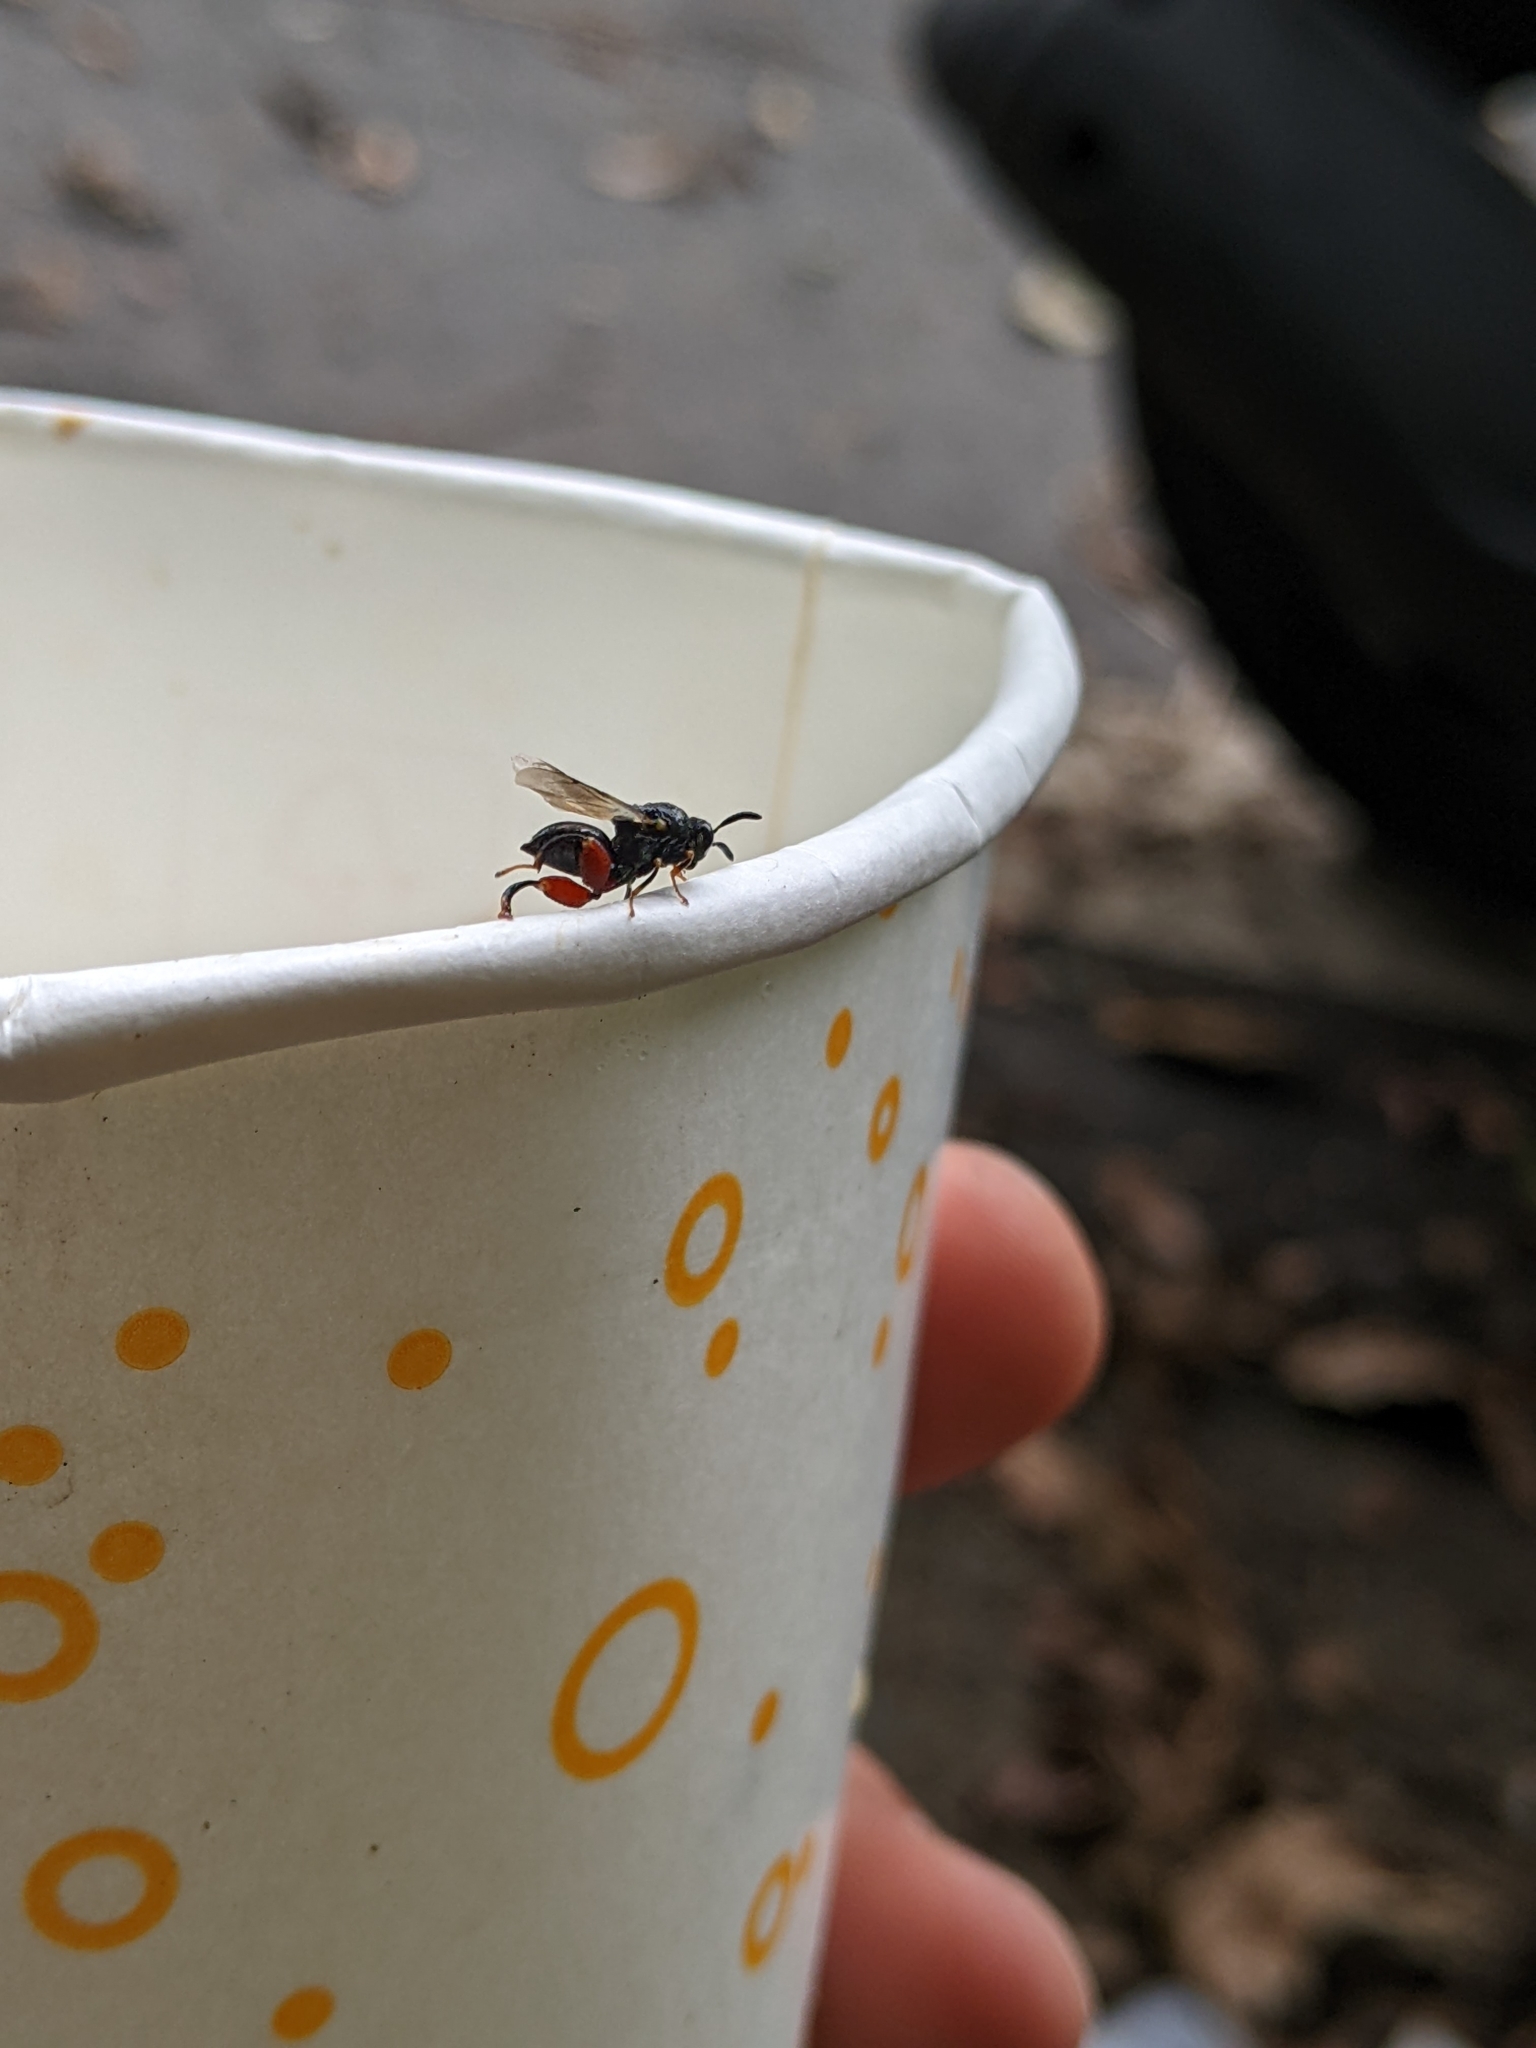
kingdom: Animalia
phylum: Arthropoda
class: Insecta
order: Hymenoptera
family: Chalcididae
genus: Brachymeria
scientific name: Brachymeria podagrica
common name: Chalcid wasp
